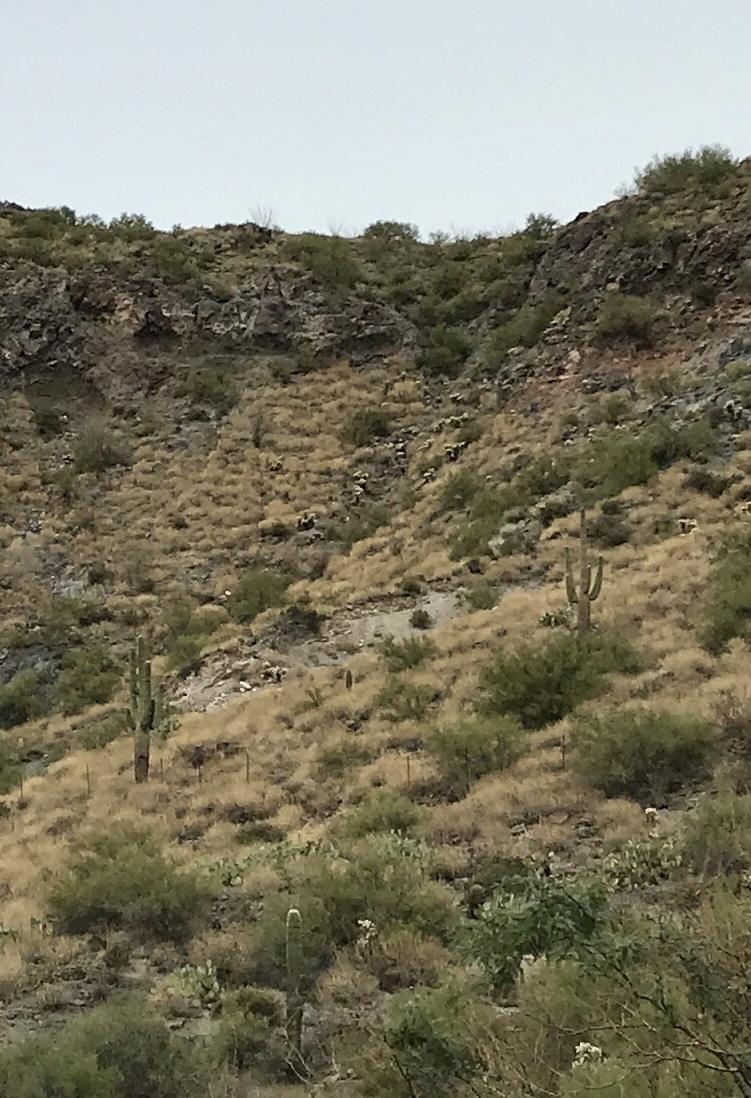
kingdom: Plantae
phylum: Tracheophyta
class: Magnoliopsida
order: Caryophyllales
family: Cactaceae
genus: Carnegiea
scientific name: Carnegiea gigantea
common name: Saguaro
